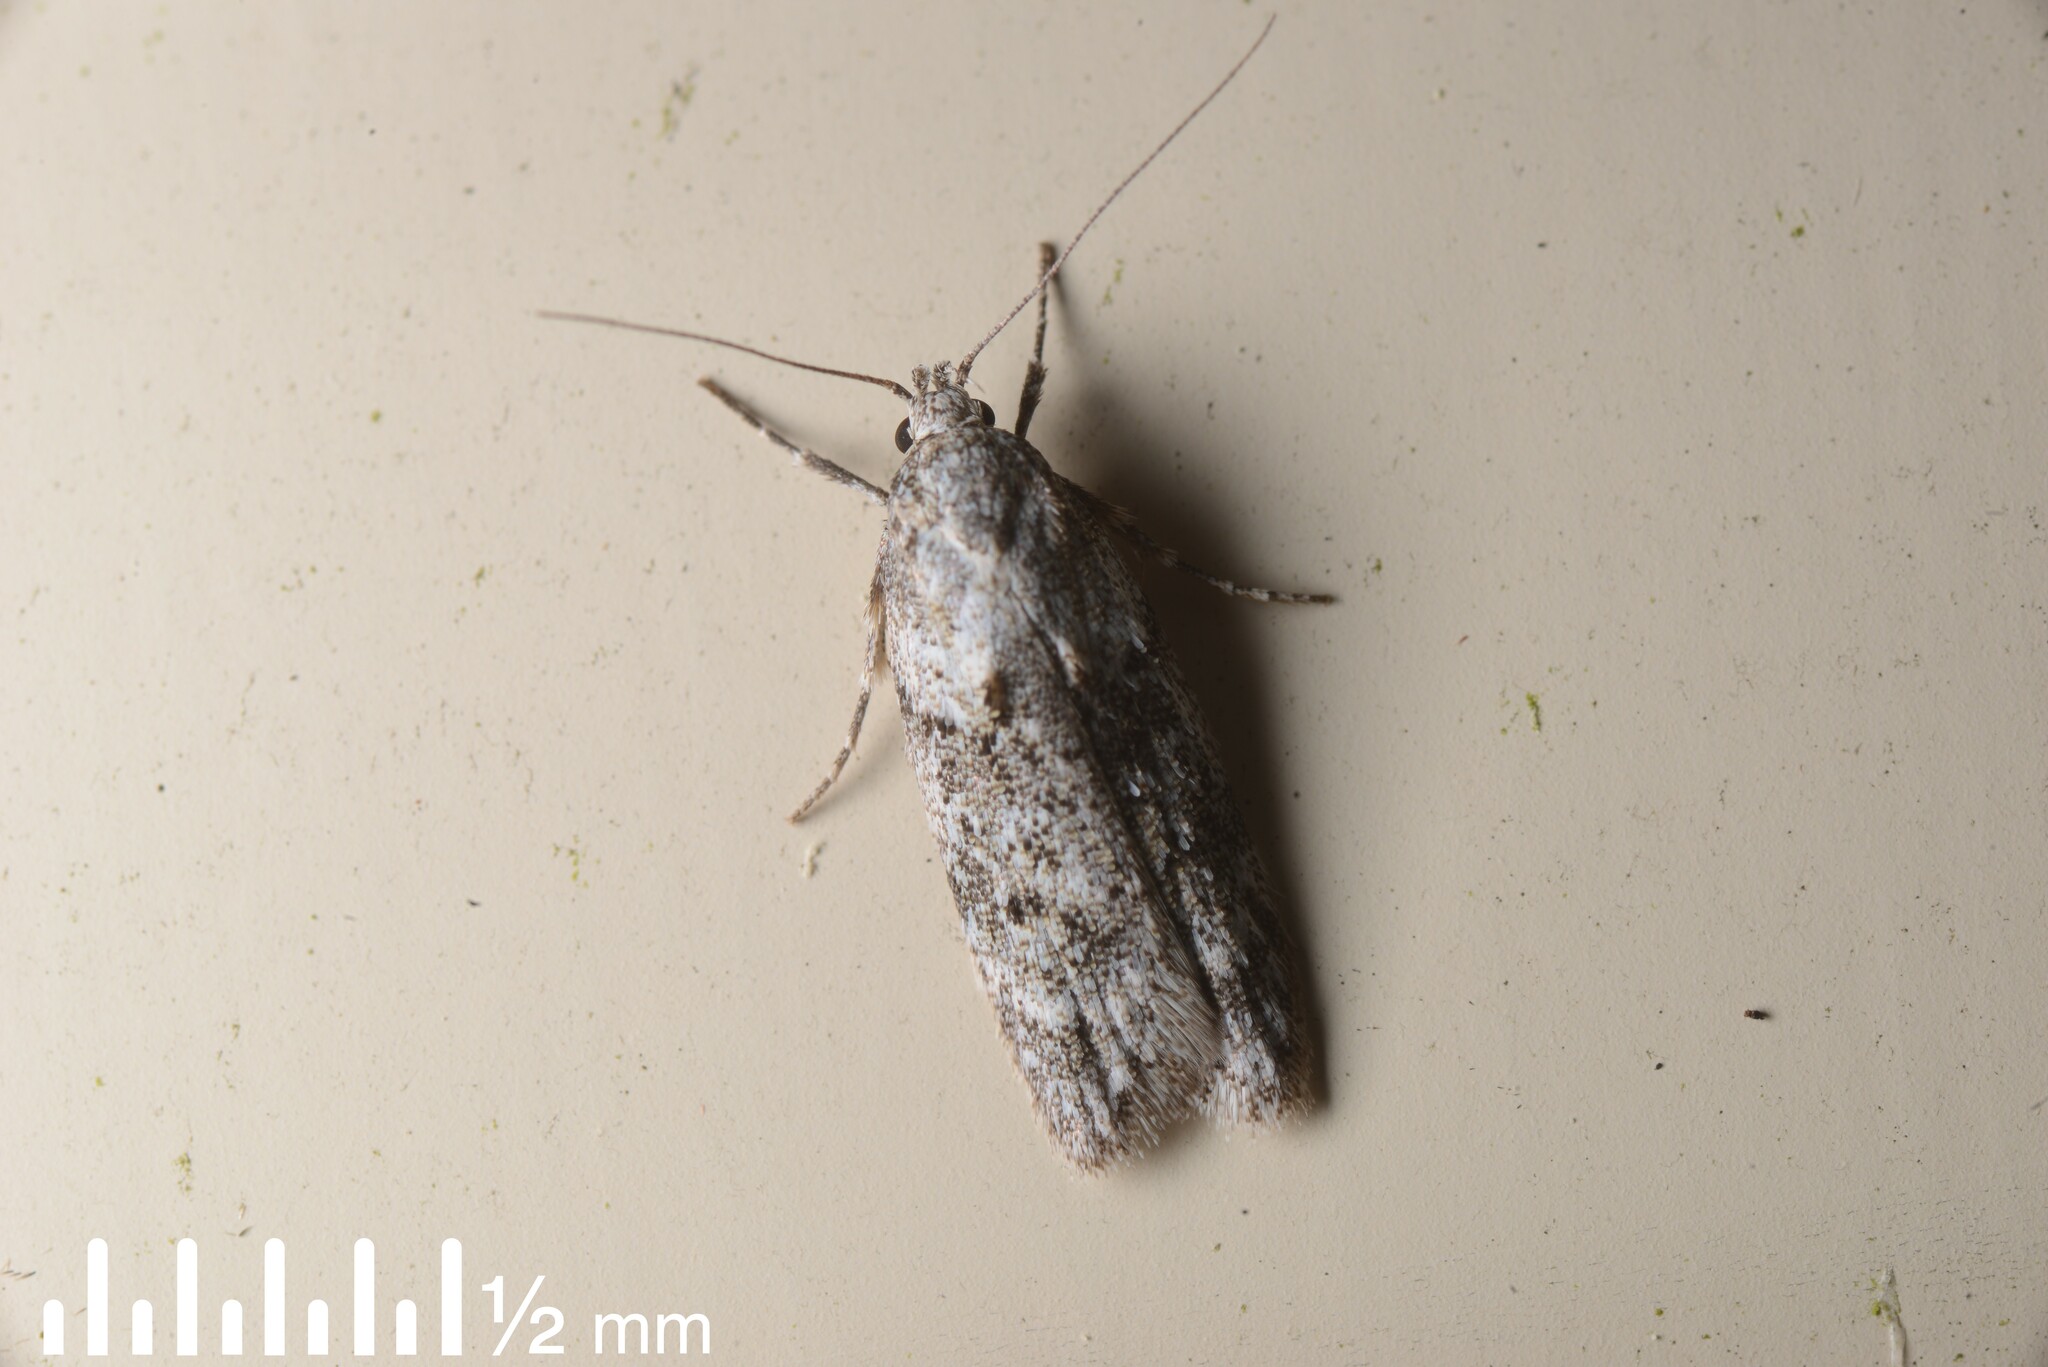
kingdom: Animalia
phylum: Arthropoda
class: Insecta
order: Lepidoptera
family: Oecophoridae
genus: Izatha
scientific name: Izatha convulsella
